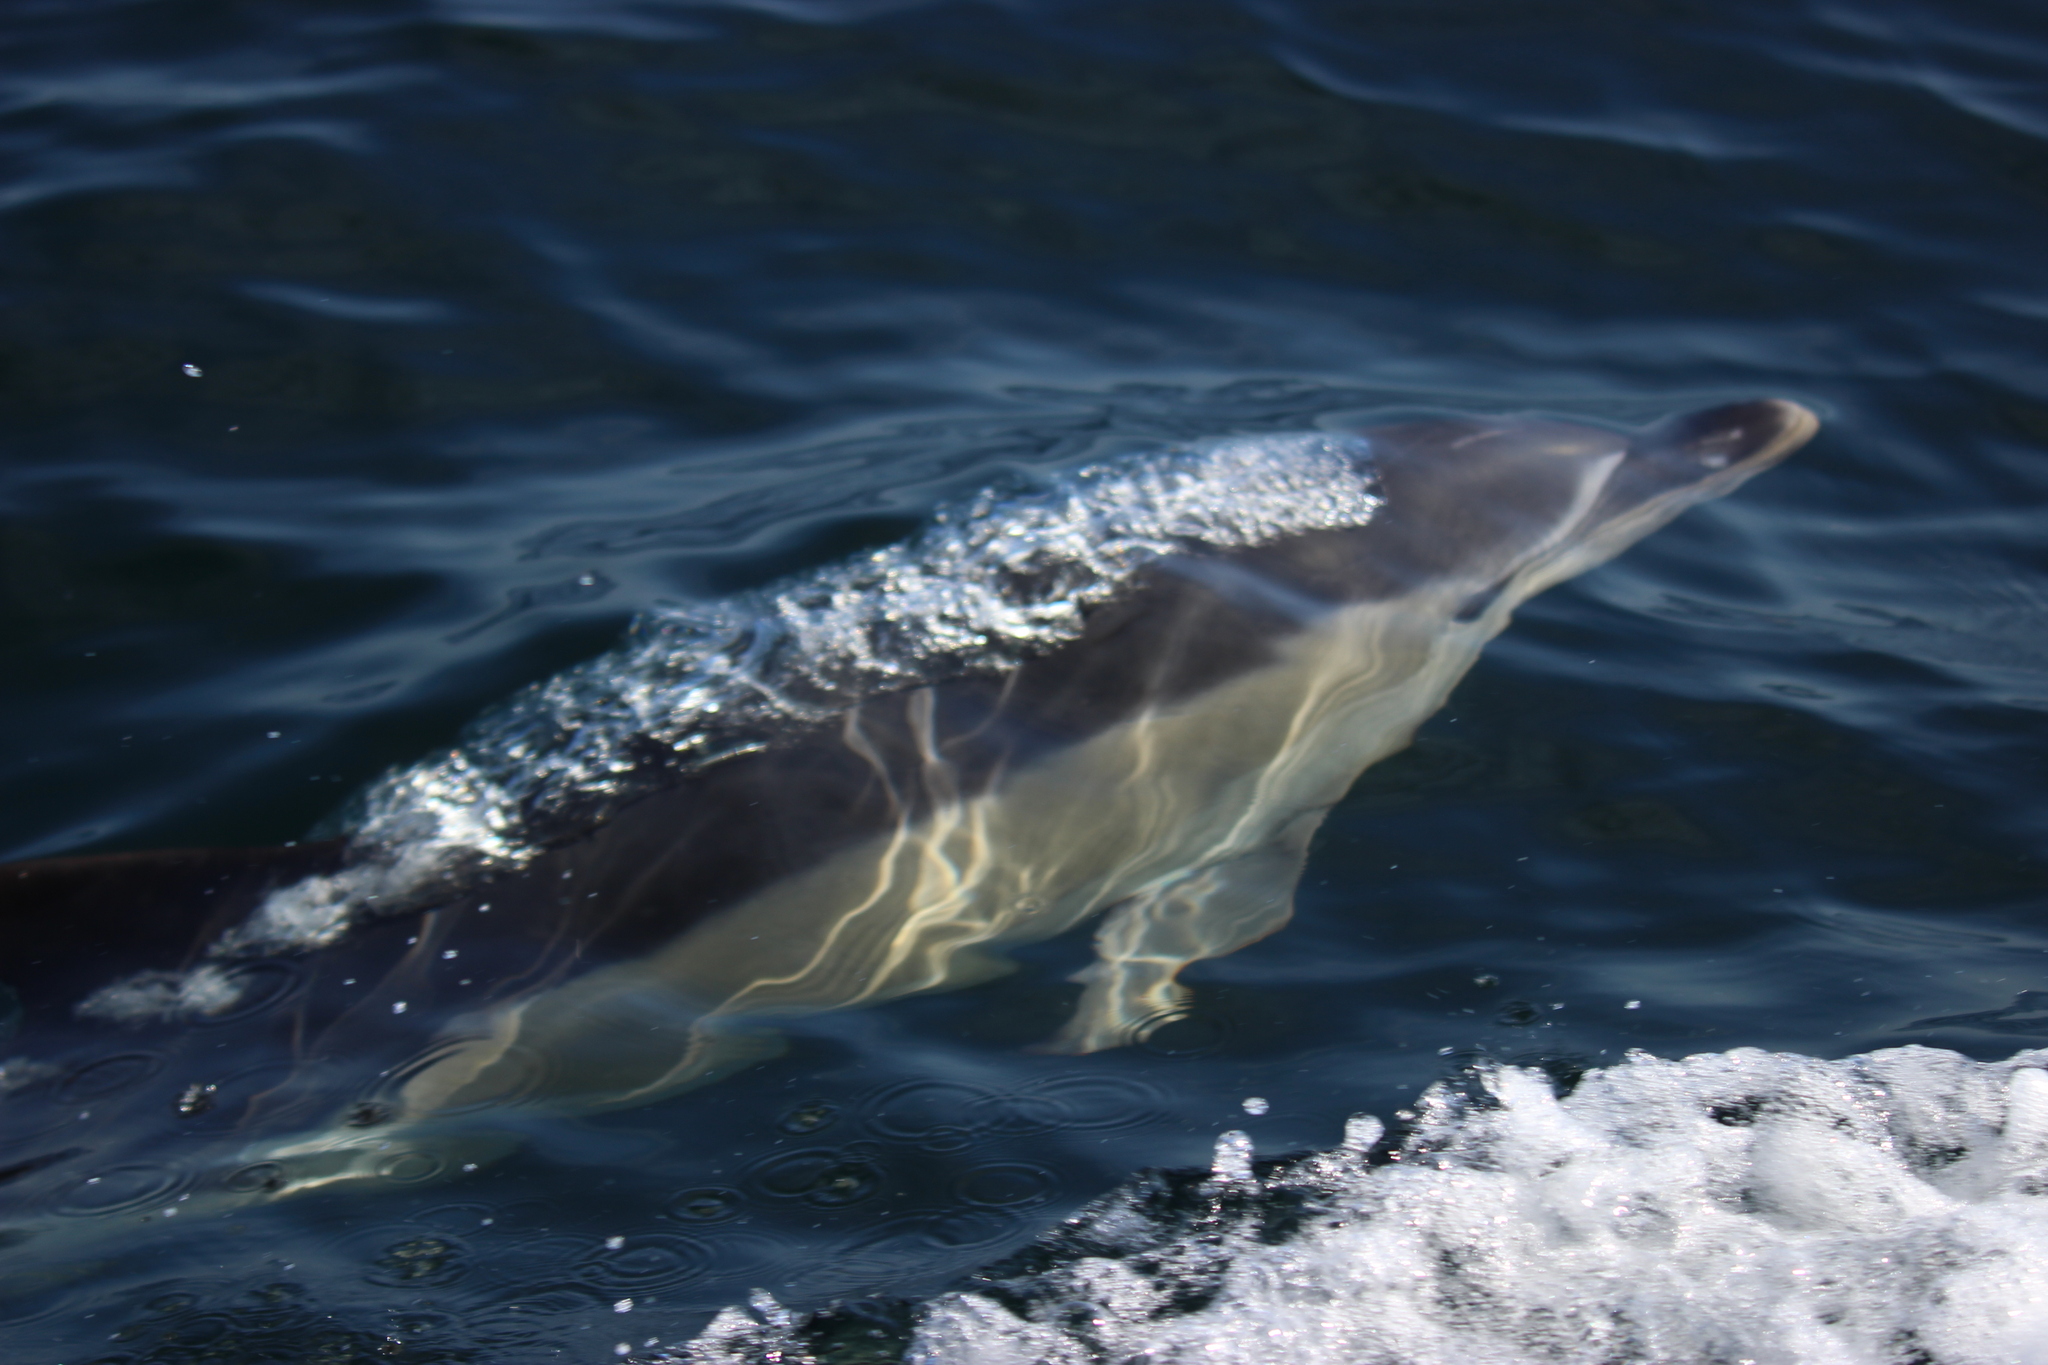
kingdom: Animalia
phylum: Chordata
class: Mammalia
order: Cetacea
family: Delphinidae
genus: Delphinus
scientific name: Delphinus delphis
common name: Common dolphin
